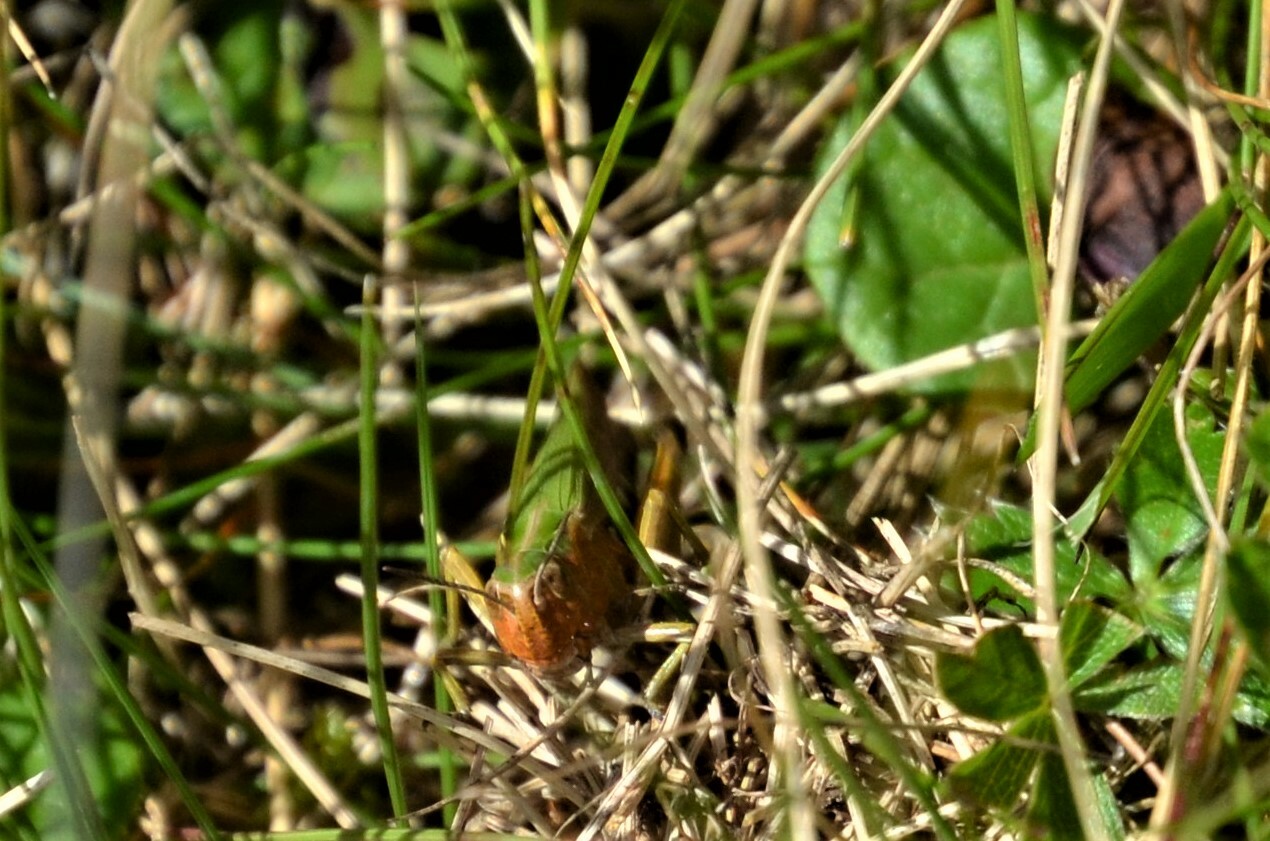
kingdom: Animalia
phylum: Arthropoda
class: Insecta
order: Orthoptera
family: Acrididae
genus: Omocestus
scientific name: Omocestus viridulus
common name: Common green grasshopper
